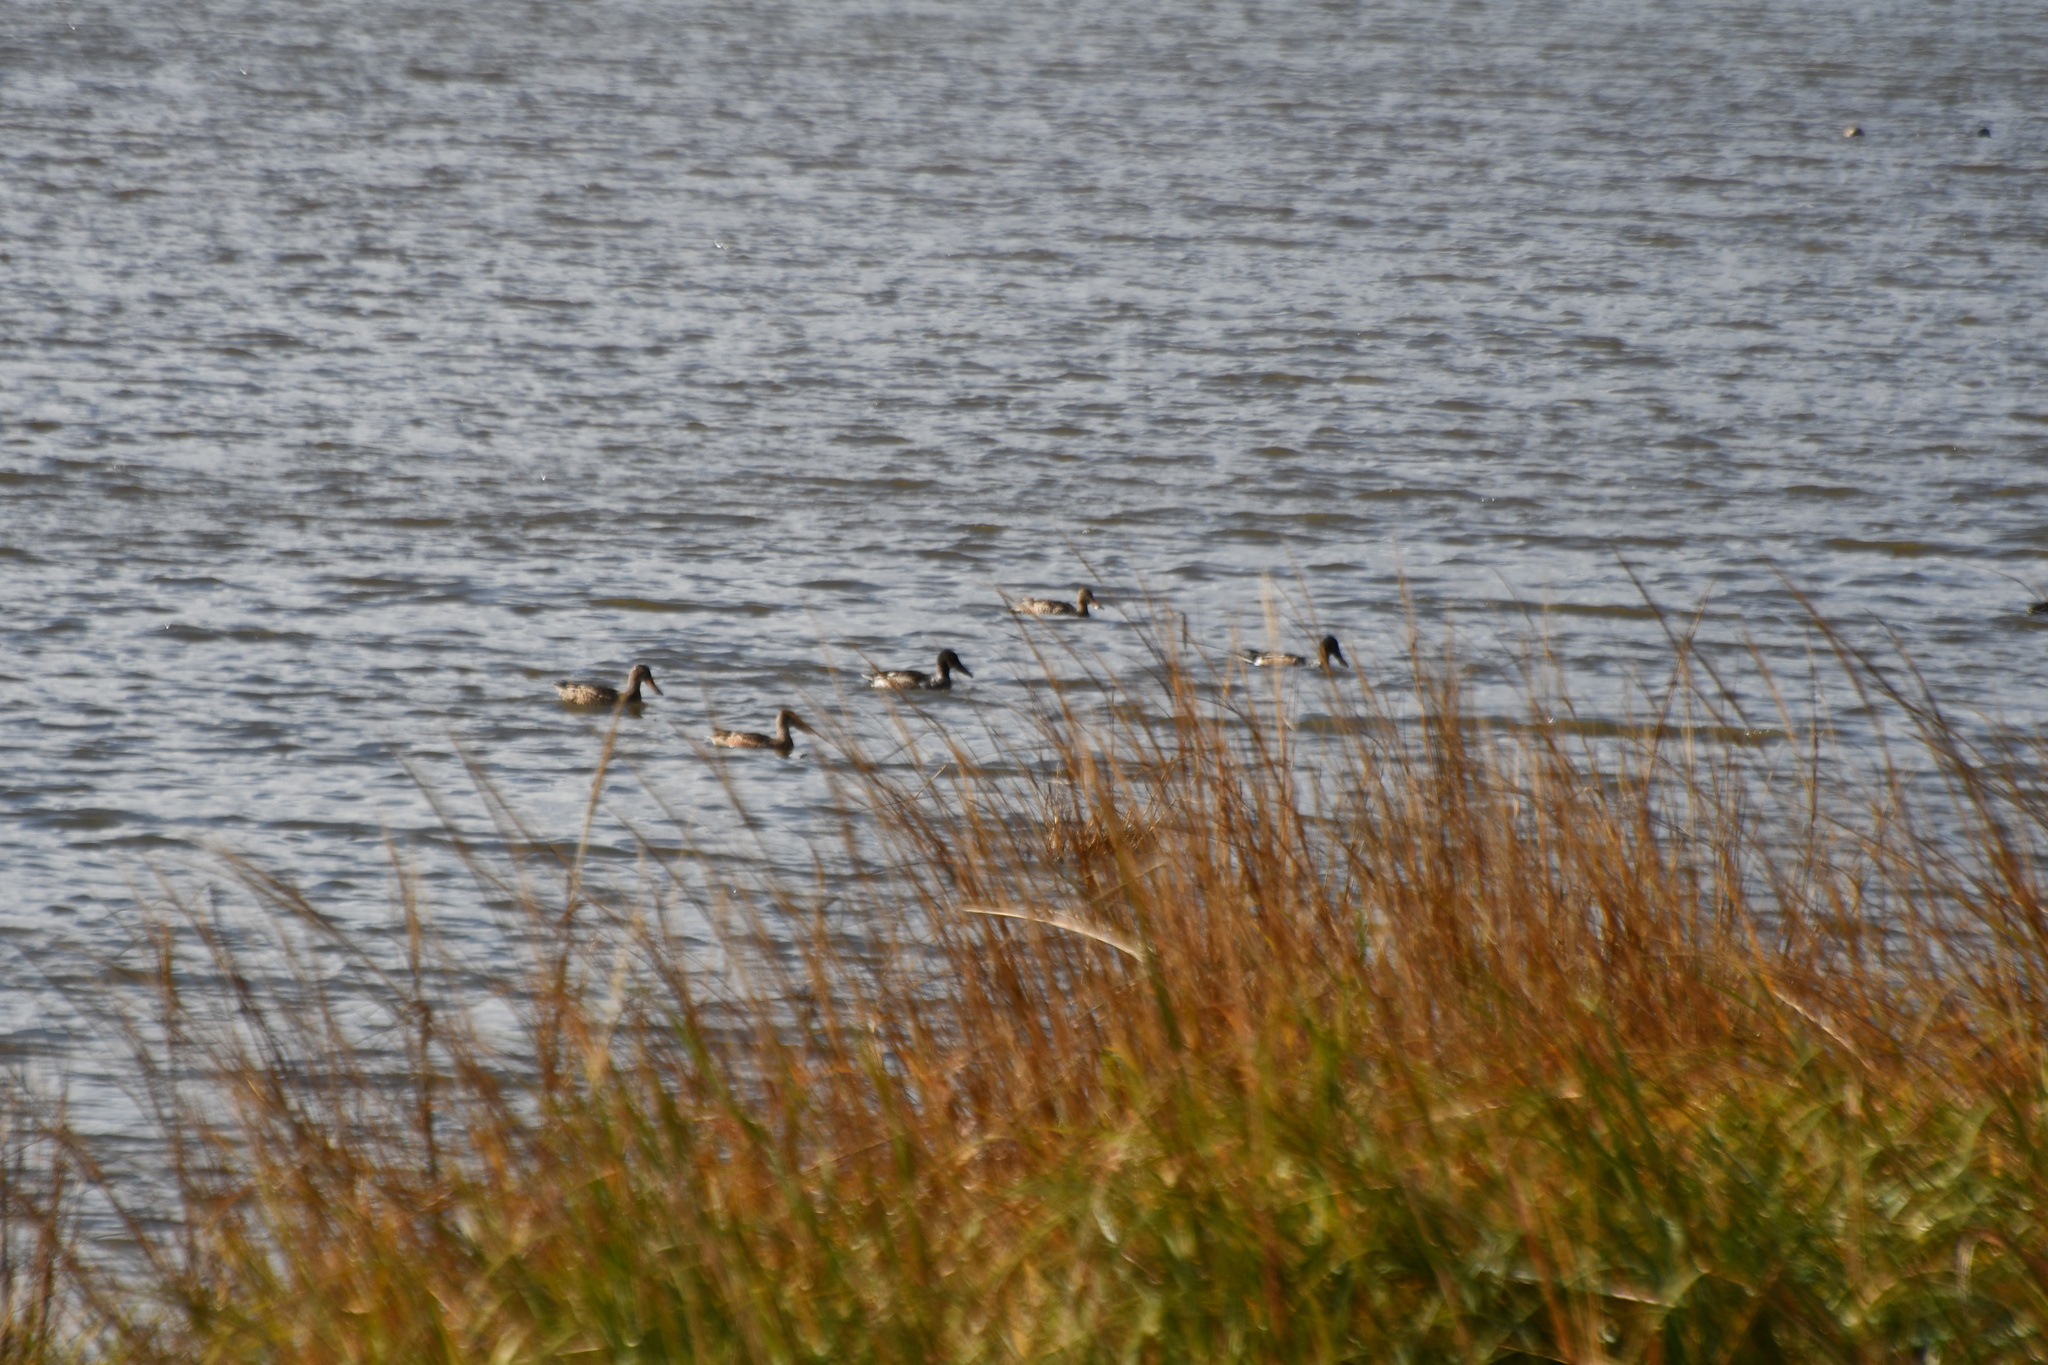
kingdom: Animalia
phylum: Chordata
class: Aves
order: Anseriformes
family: Anatidae
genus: Spatula
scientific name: Spatula clypeata
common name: Northern shoveler
